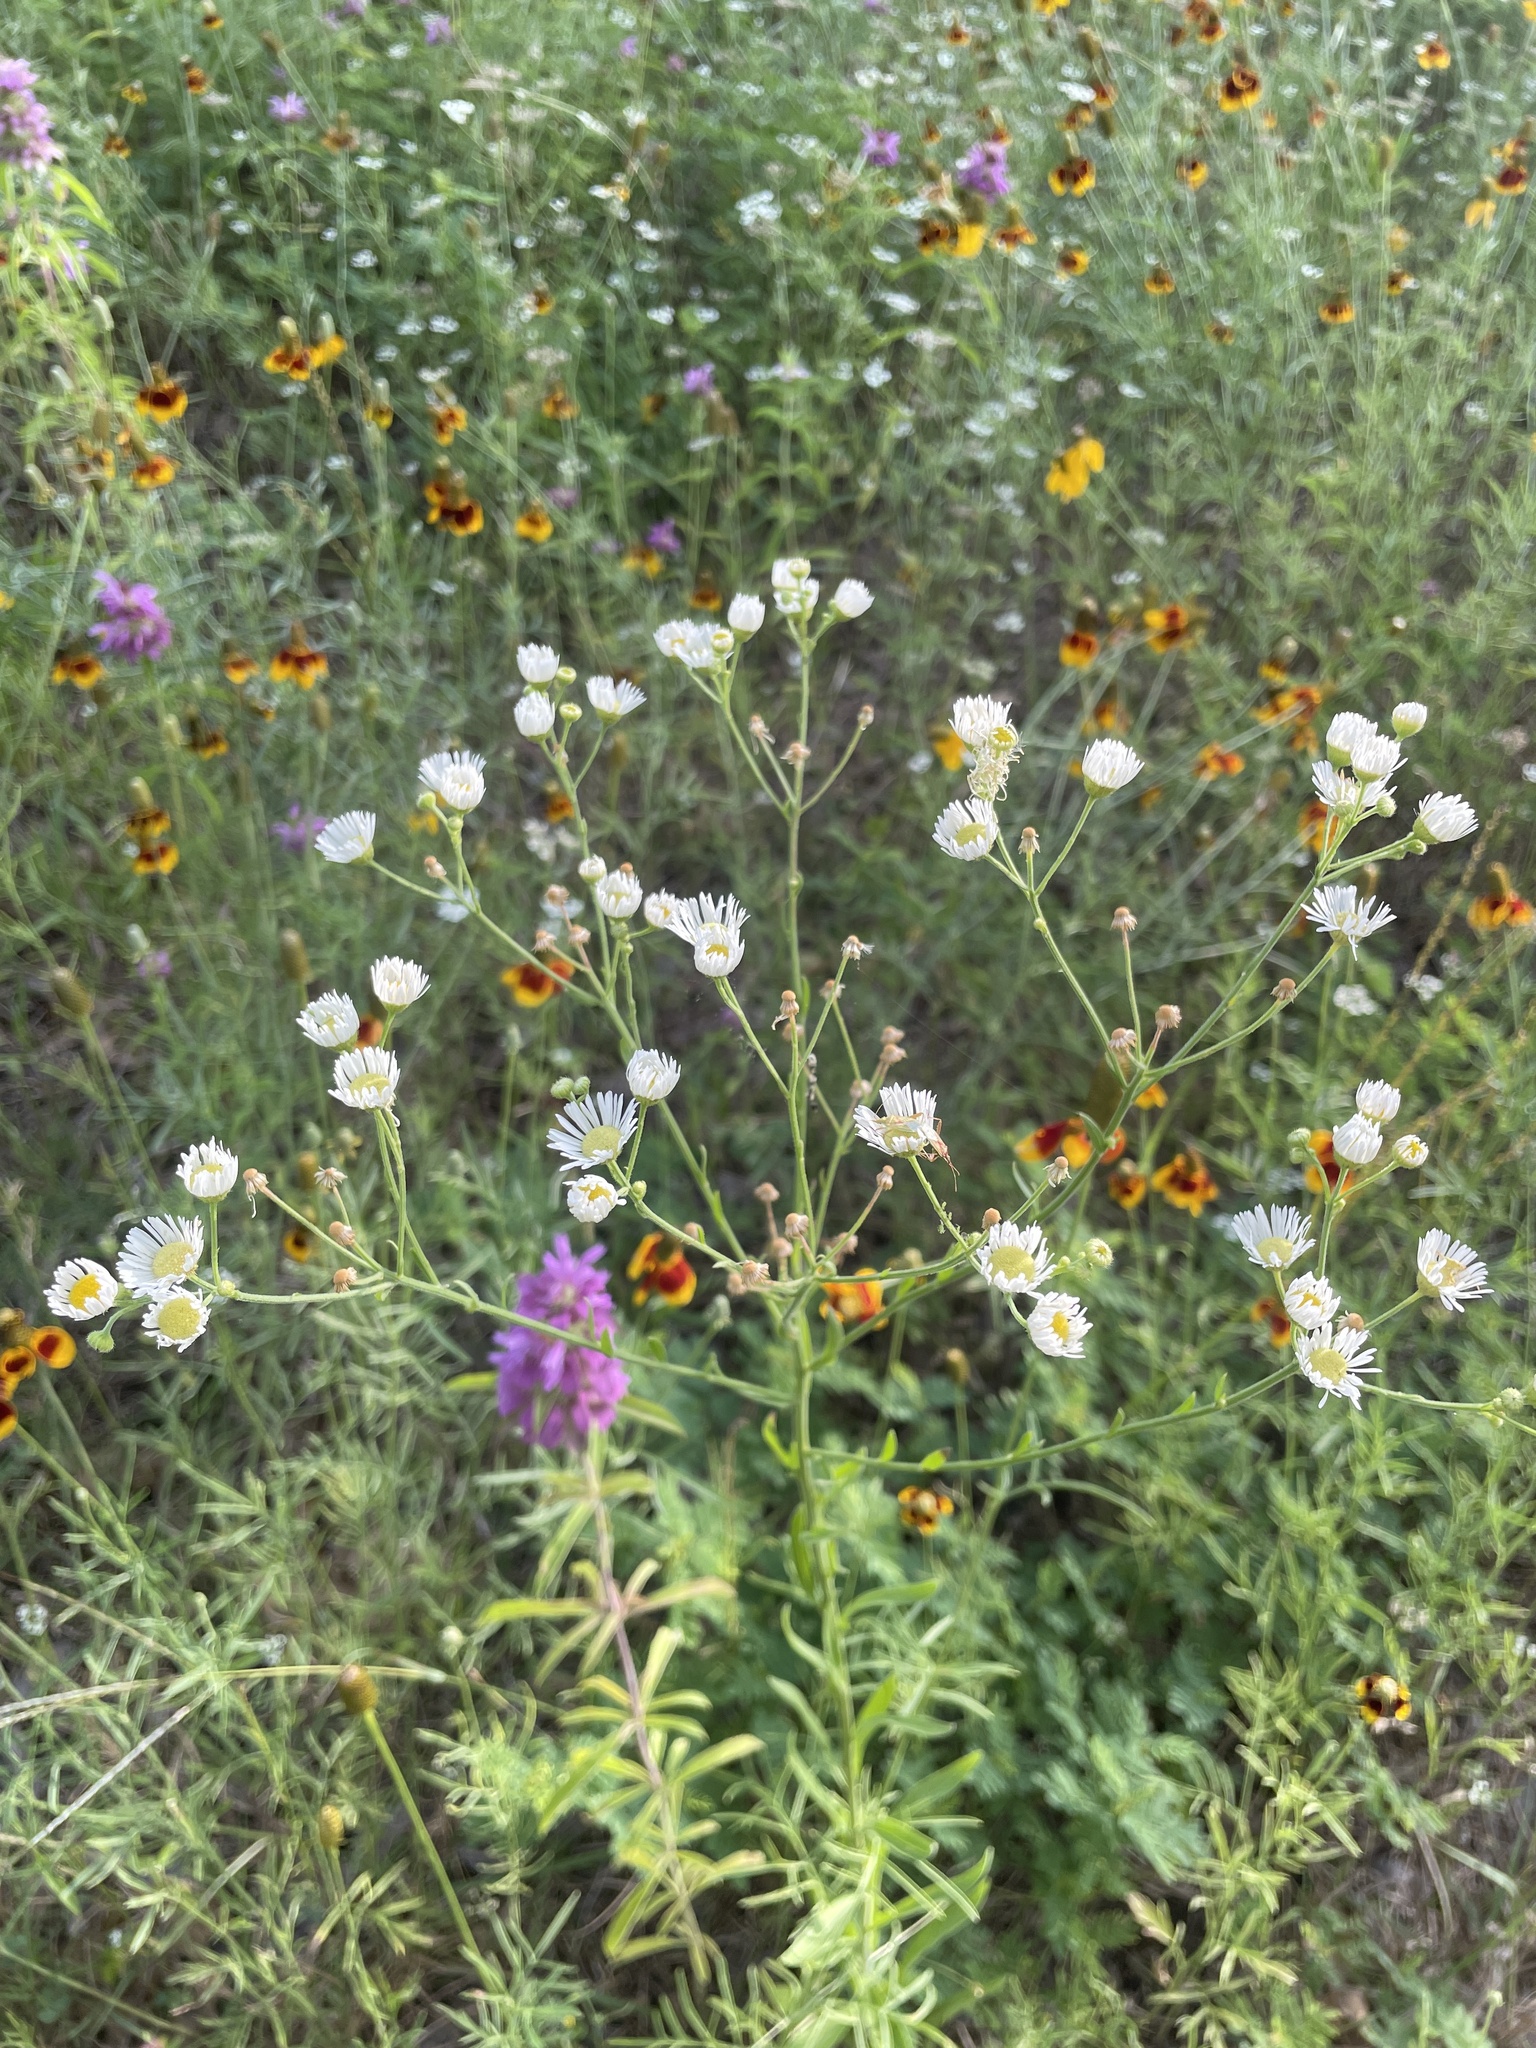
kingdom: Plantae
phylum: Tracheophyta
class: Magnoliopsida
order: Asterales
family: Asteraceae
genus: Erigeron
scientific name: Erigeron strigosus
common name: Common eastern fleabane
